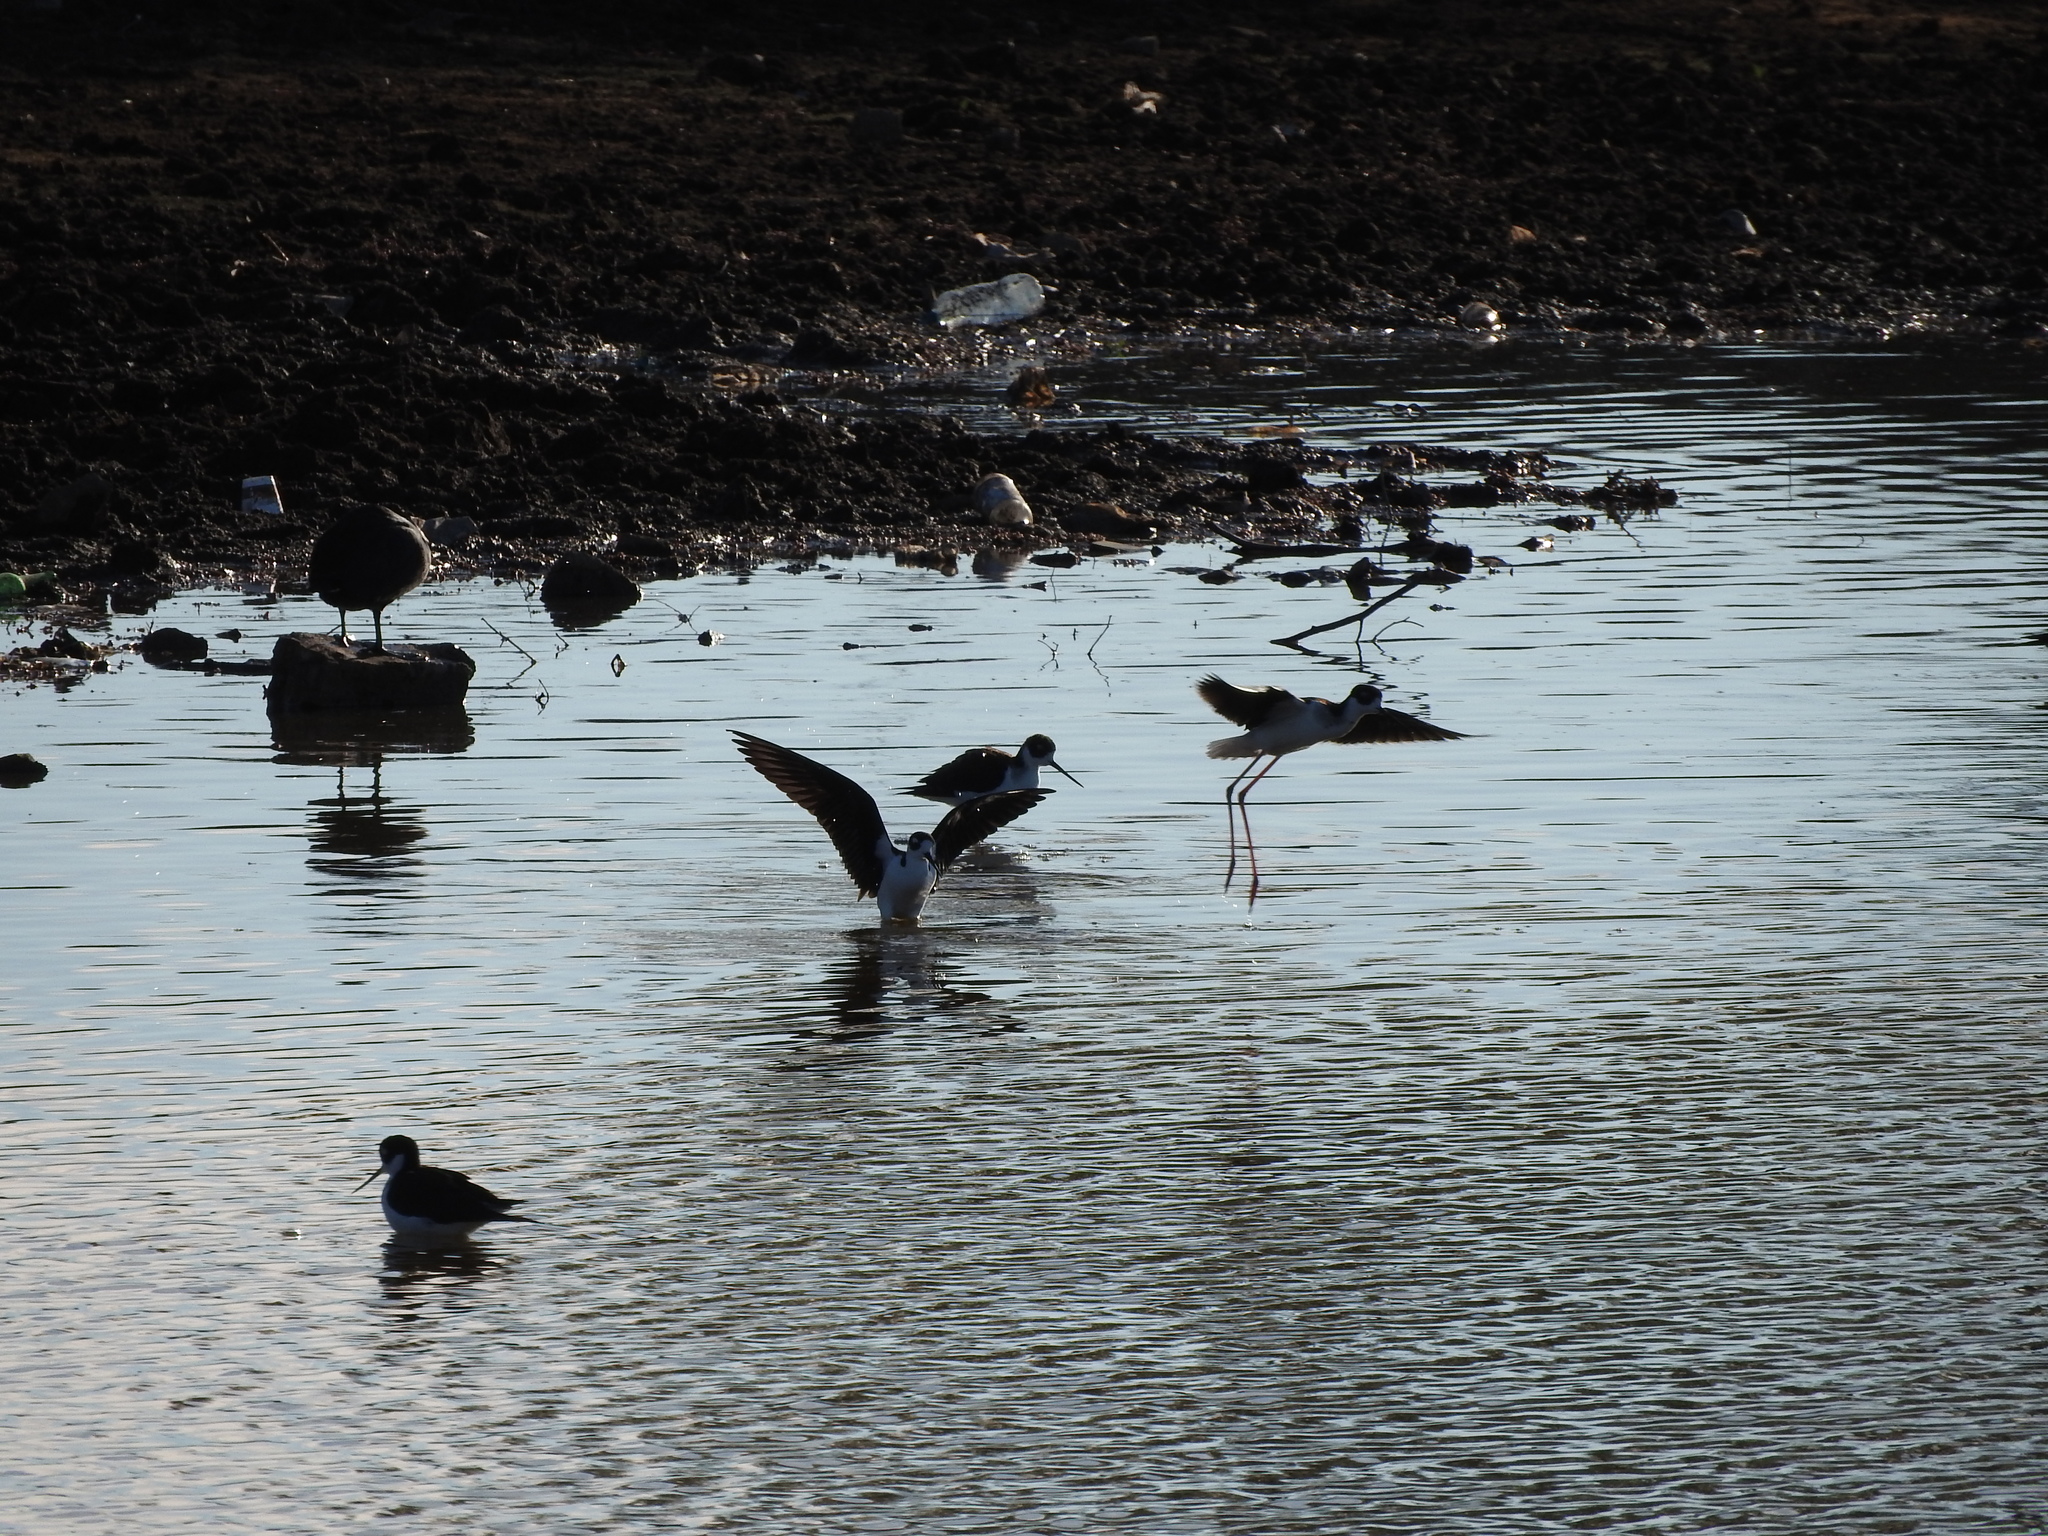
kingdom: Animalia
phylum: Chordata
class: Aves
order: Charadriiformes
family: Recurvirostridae
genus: Himantopus
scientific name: Himantopus mexicanus
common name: Black-necked stilt
